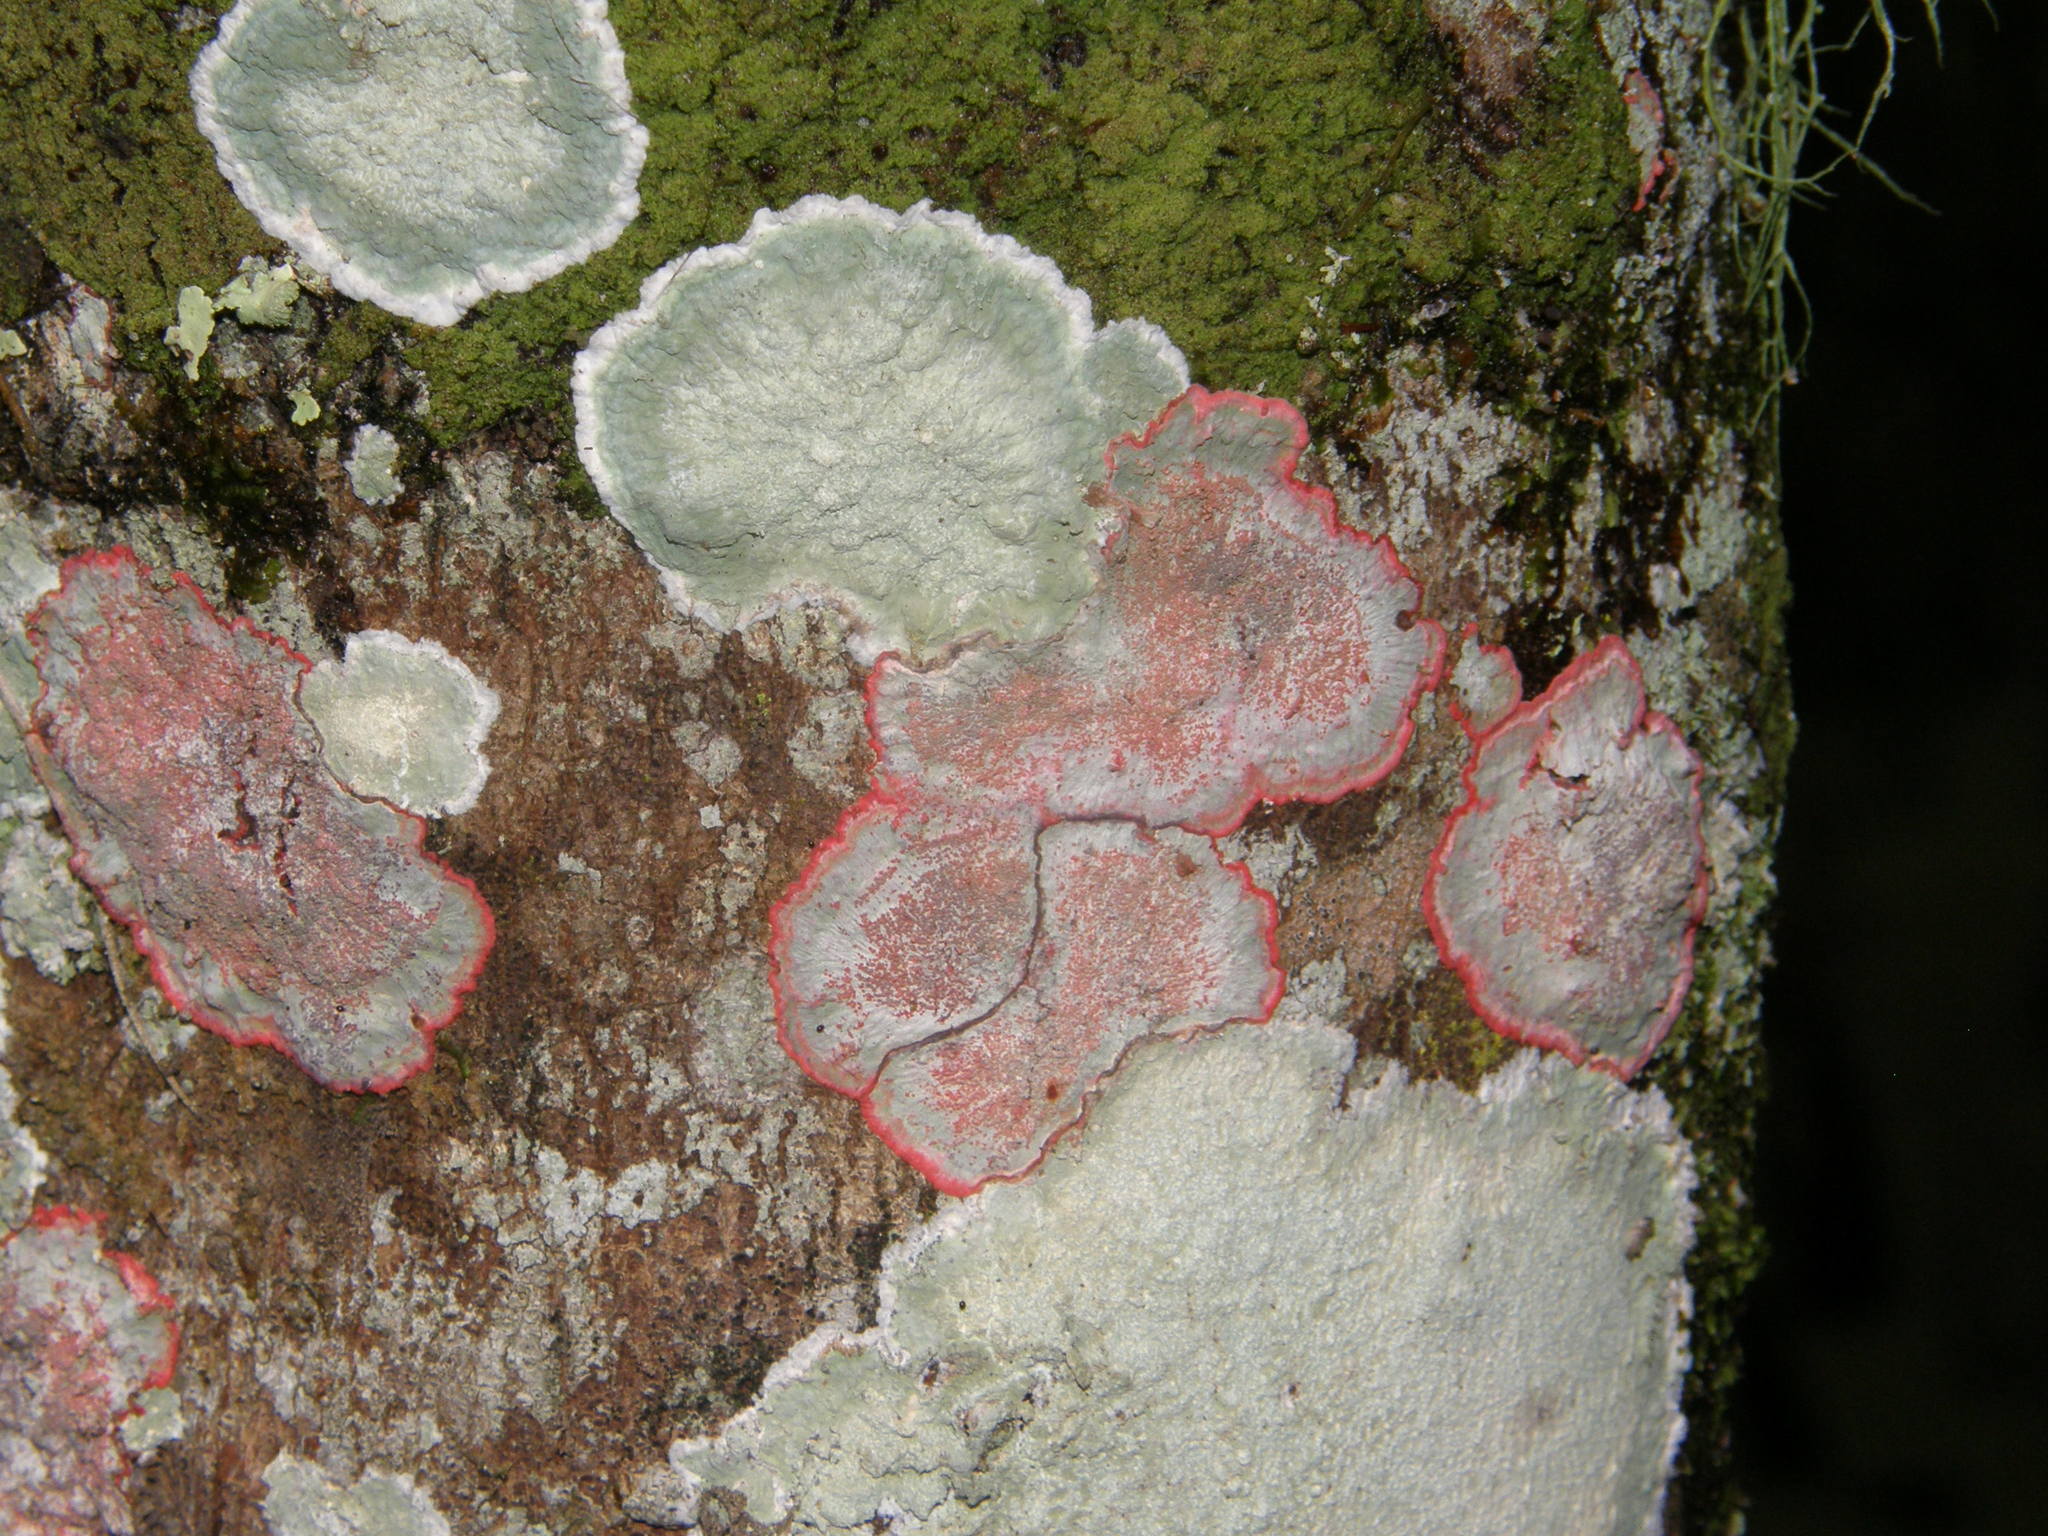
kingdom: Fungi
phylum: Ascomycota
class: Arthoniomycetes
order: Arthoniales
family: Arthoniaceae
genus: Herpothallon
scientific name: Herpothallon rubrocinctum
